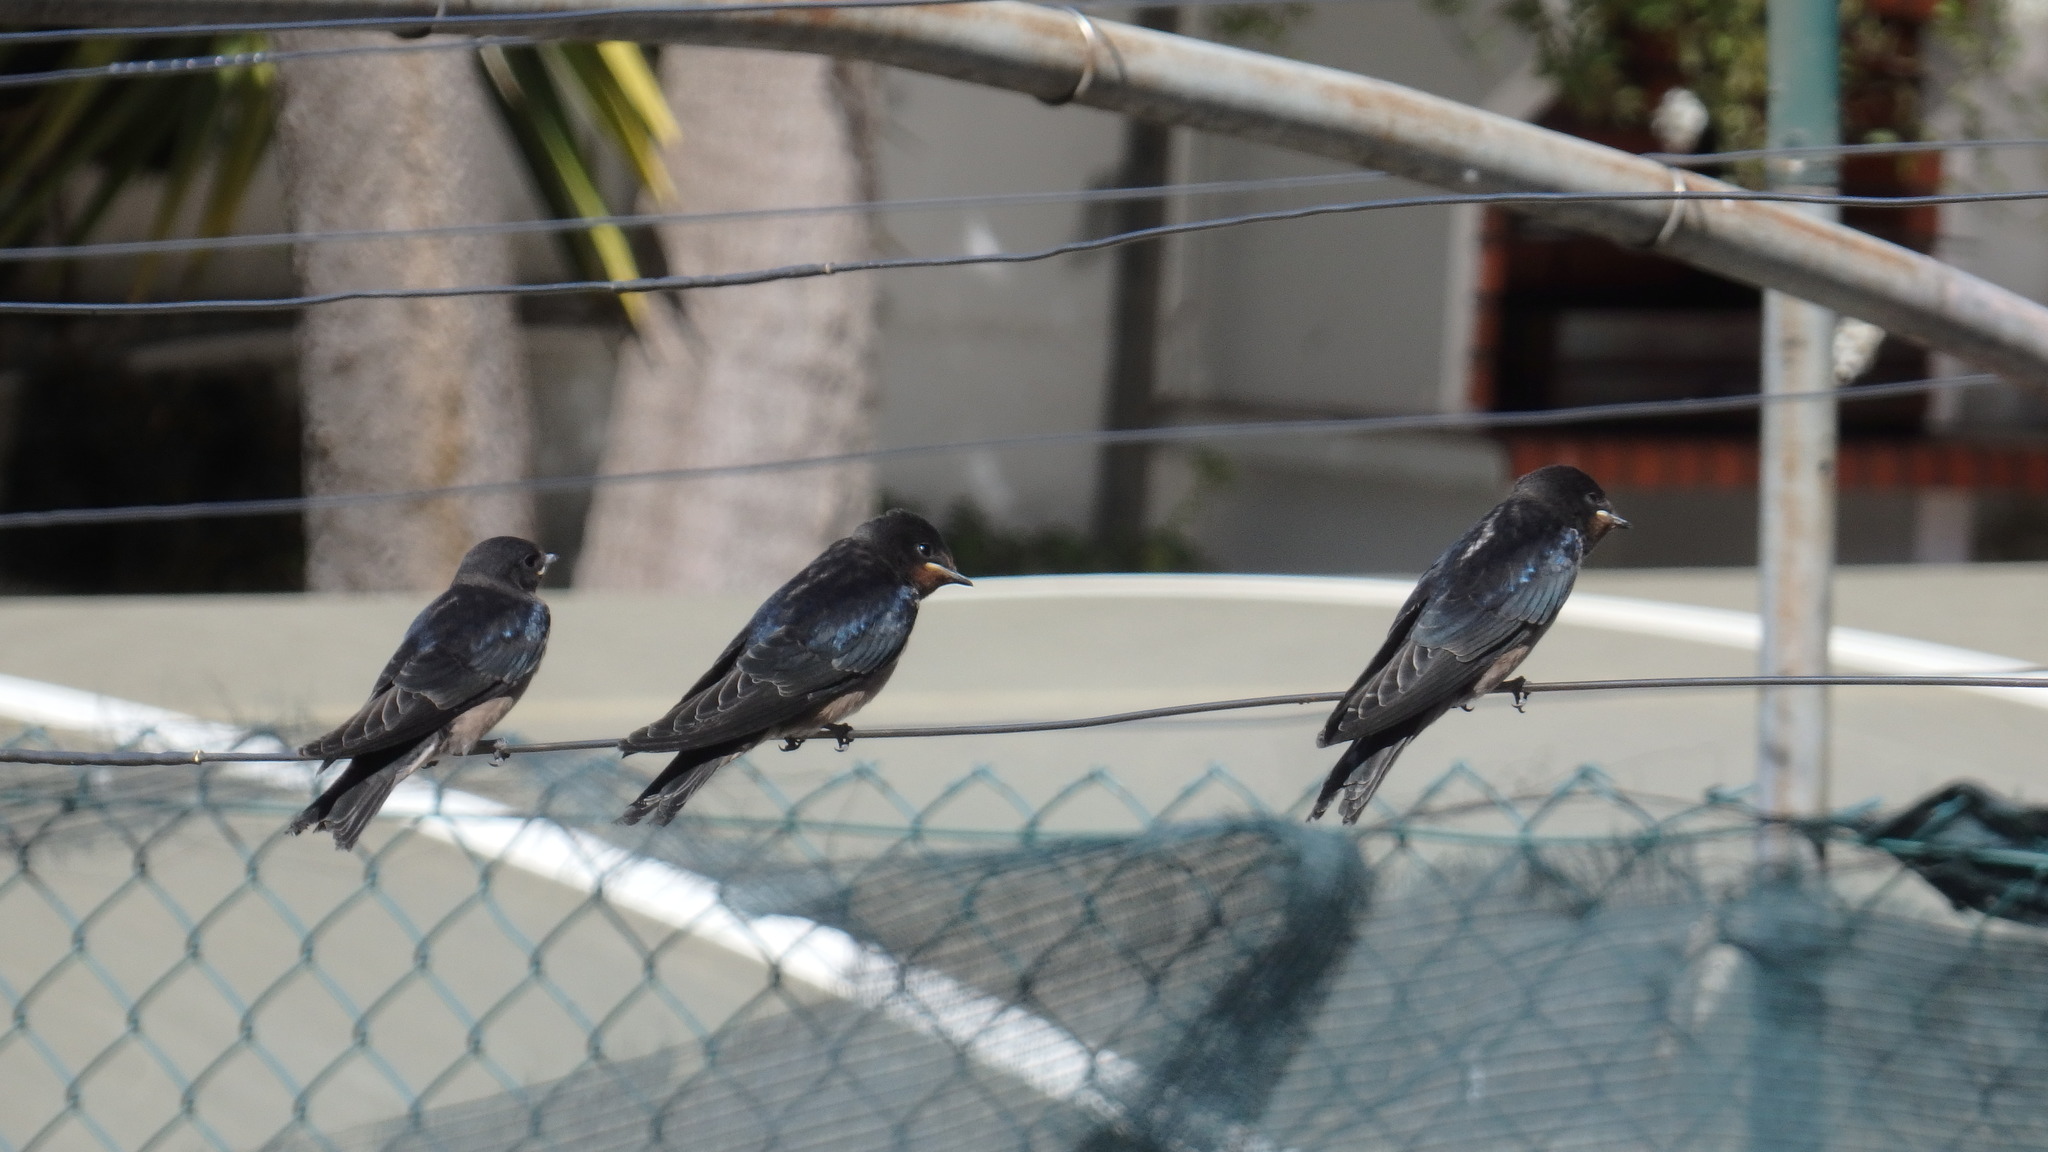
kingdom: Animalia
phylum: Chordata
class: Aves
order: Passeriformes
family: Hirundinidae
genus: Hirundo
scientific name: Hirundo rustica
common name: Barn swallow
